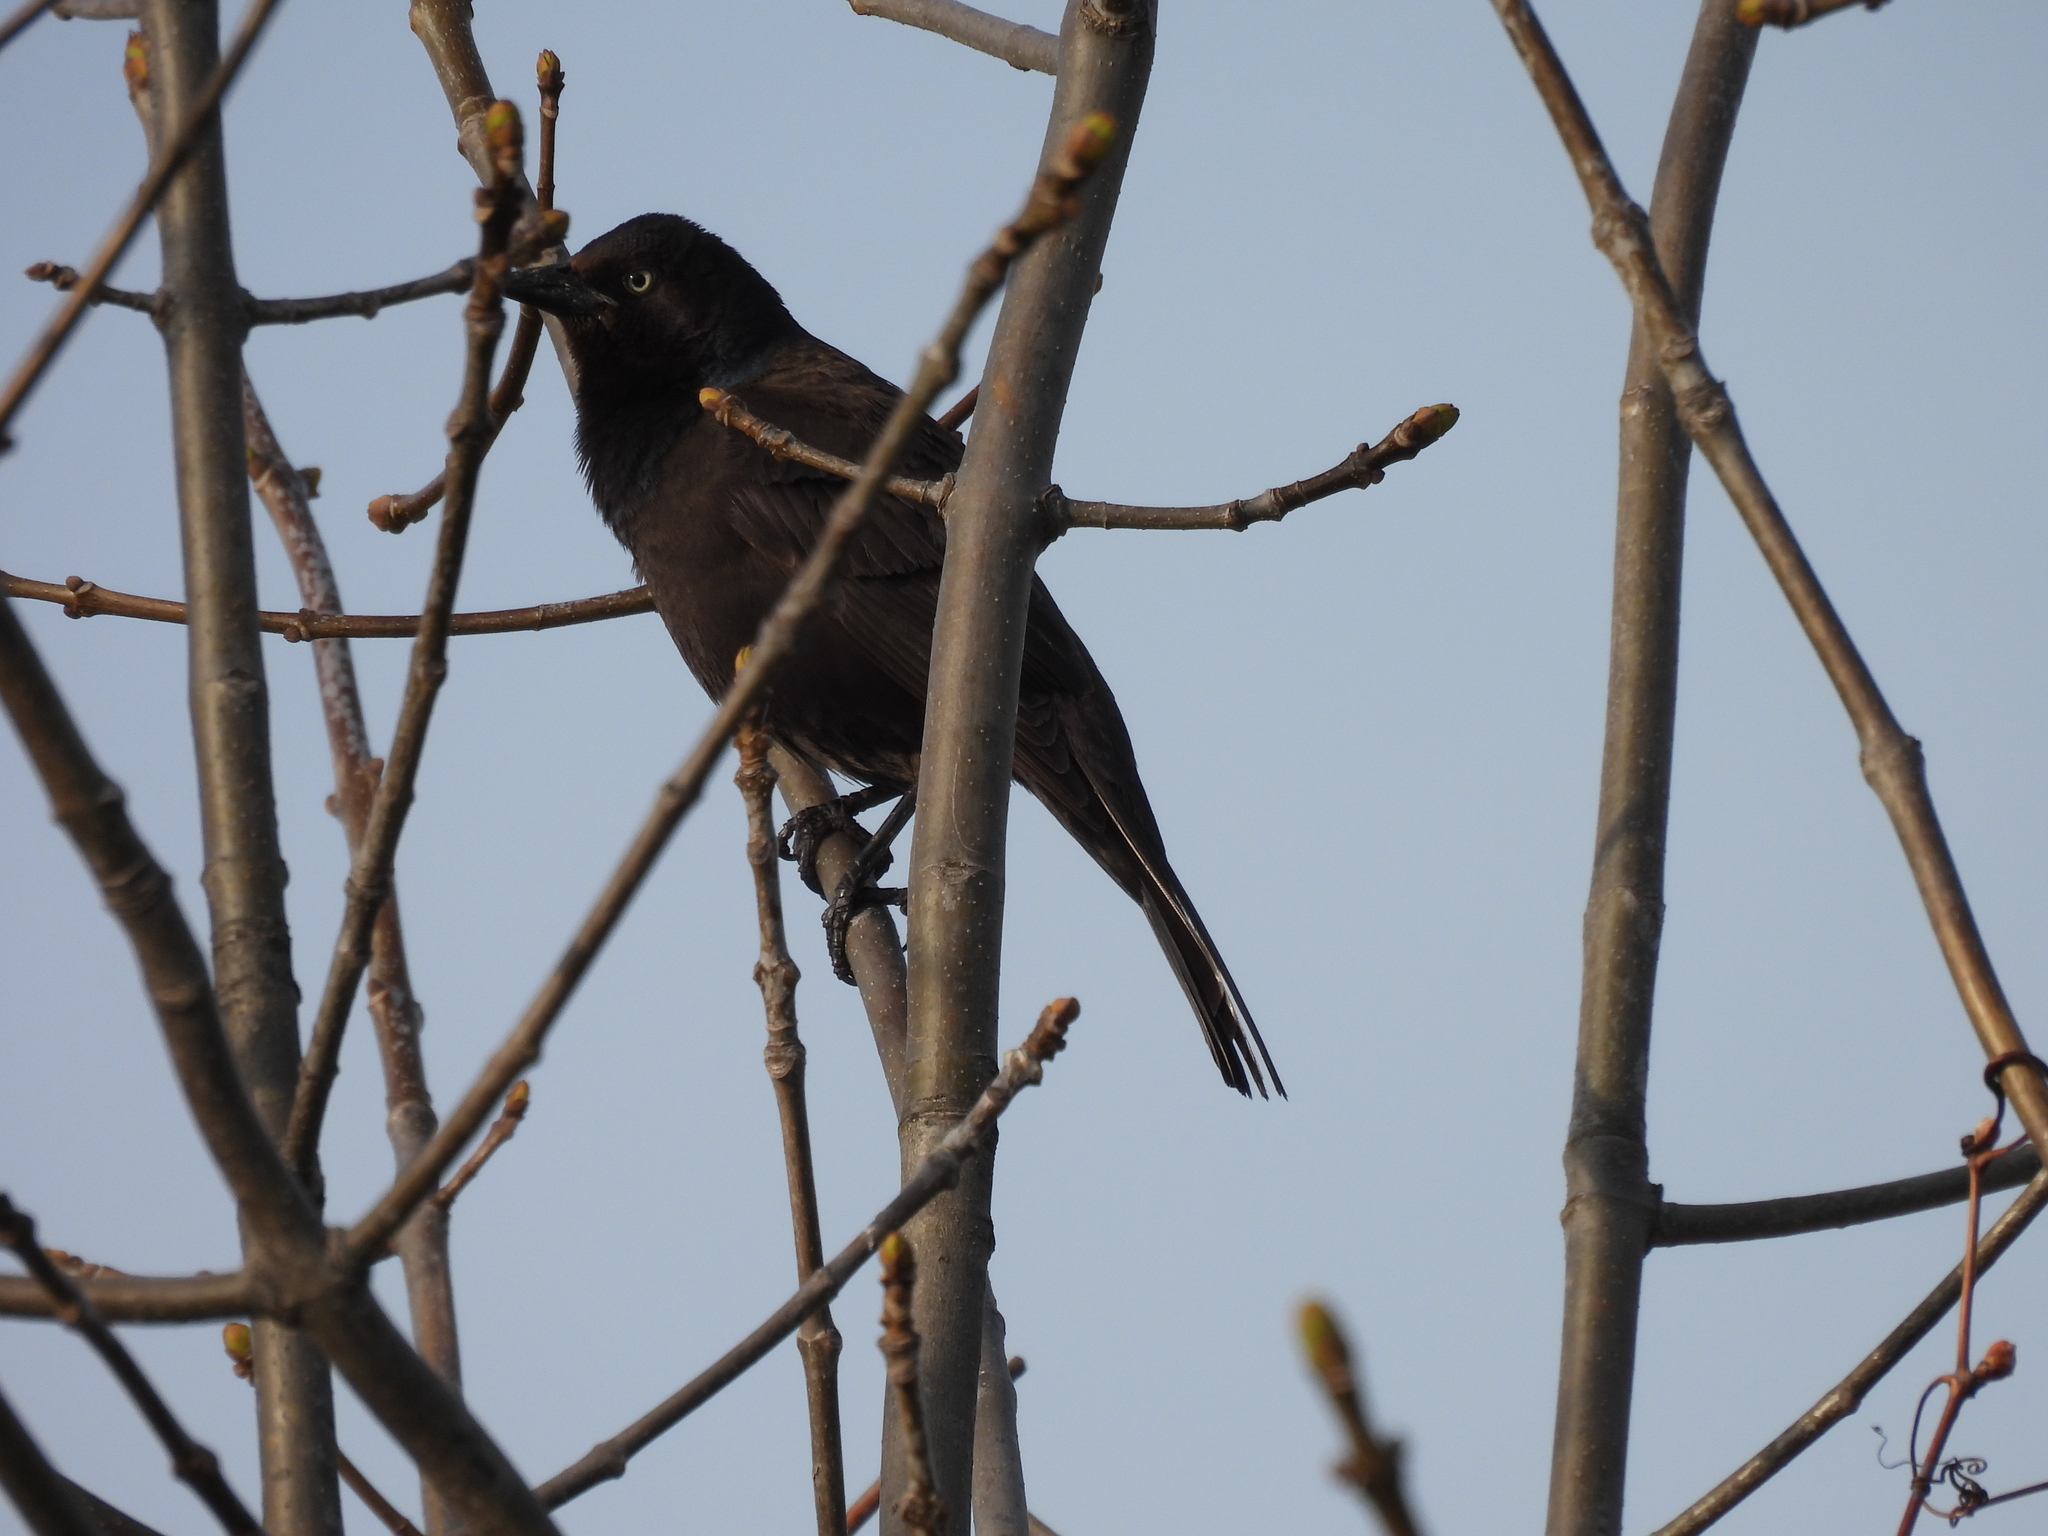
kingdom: Animalia
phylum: Chordata
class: Aves
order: Passeriformes
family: Icteridae
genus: Quiscalus
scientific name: Quiscalus quiscula
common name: Common grackle
